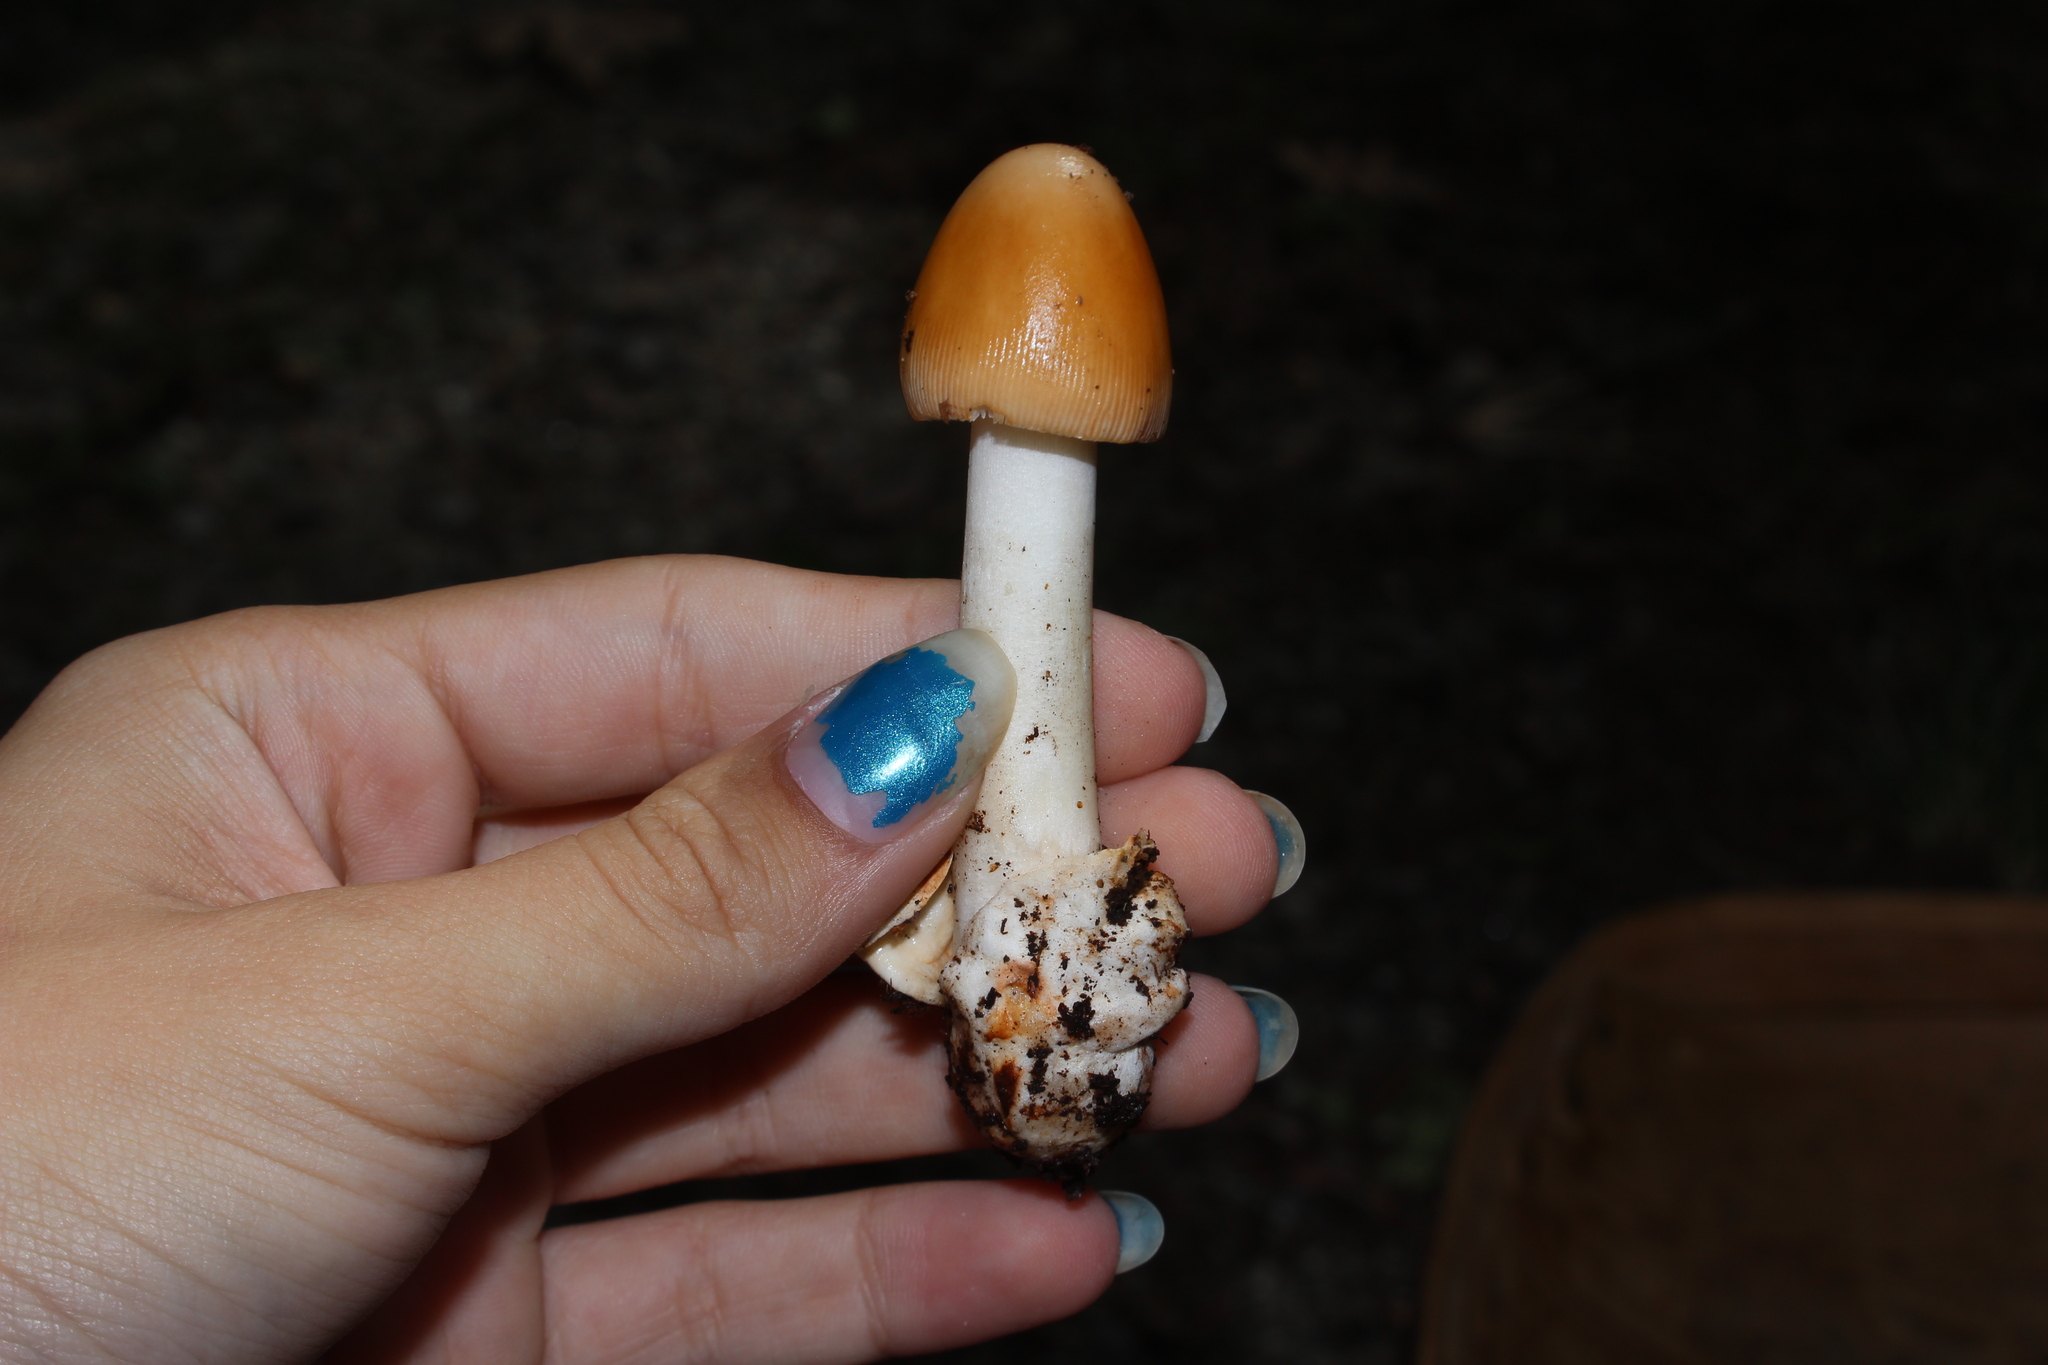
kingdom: Fungi
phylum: Basidiomycota
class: Agaricomycetes
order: Agaricales
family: Amanitaceae
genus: Amanita
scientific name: Amanita fulva
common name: Tawny grisette
